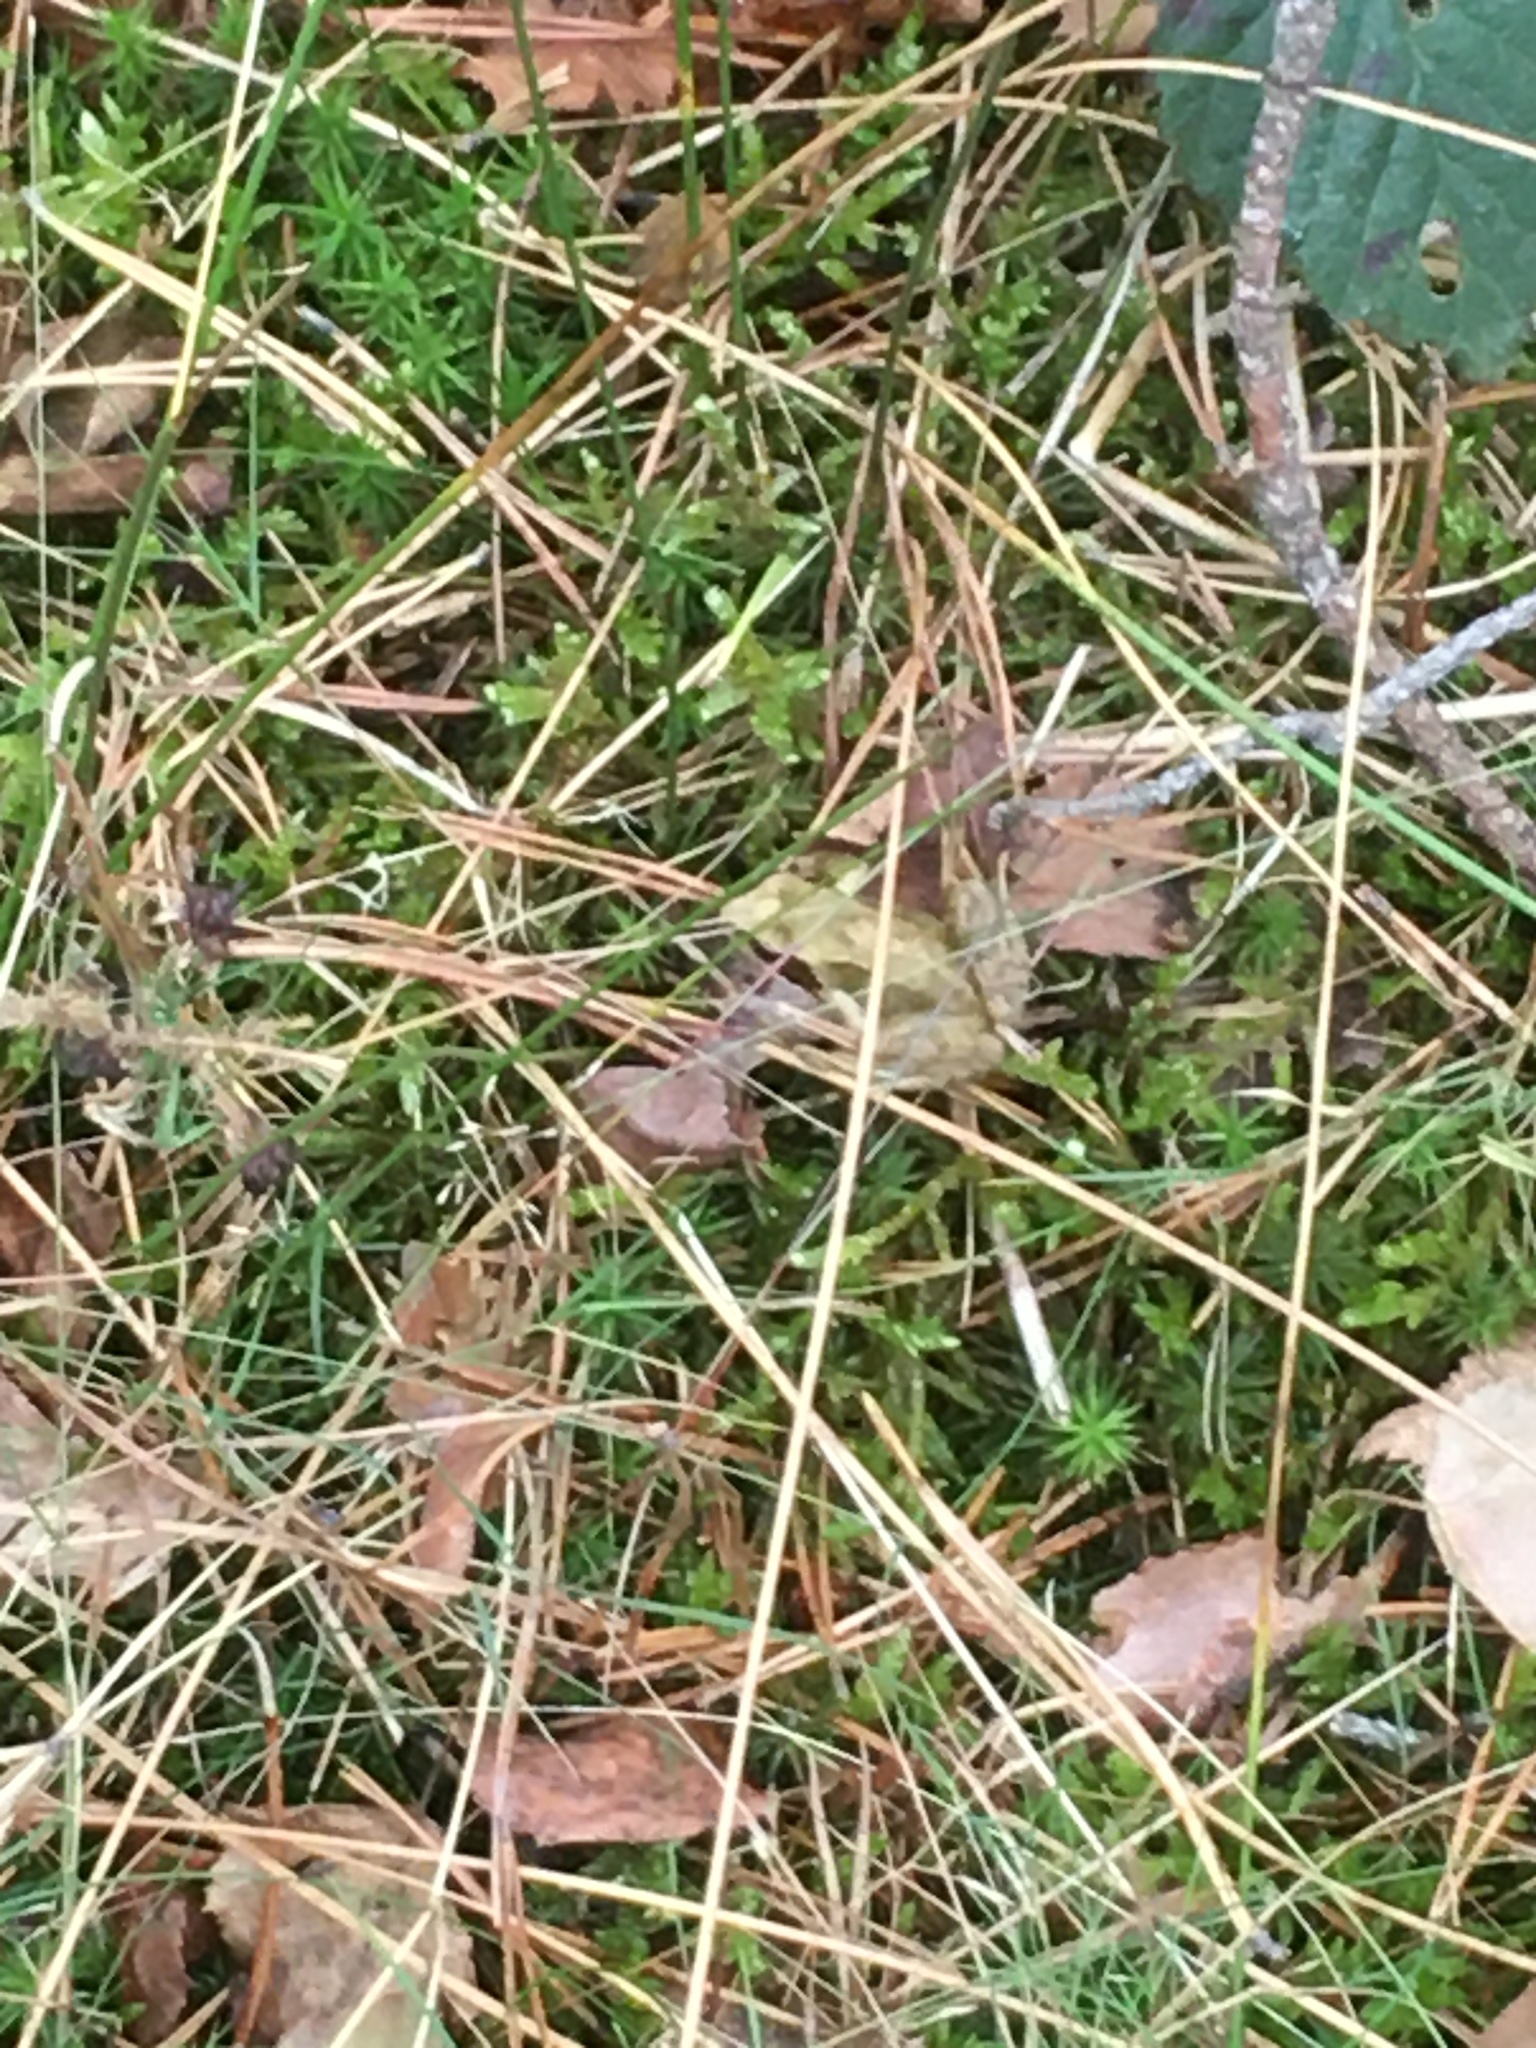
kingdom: Animalia
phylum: Chordata
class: Amphibia
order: Anura
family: Ranidae
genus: Rana
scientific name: Rana temporaria
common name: Common frog
